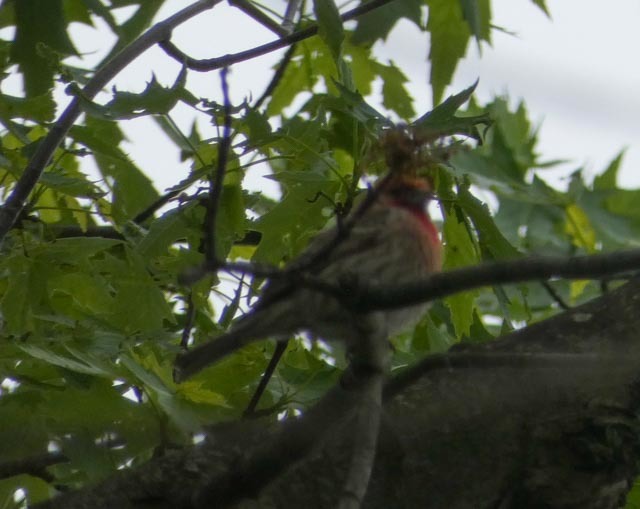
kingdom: Animalia
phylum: Chordata
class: Aves
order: Passeriformes
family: Fringillidae
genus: Haemorhous
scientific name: Haemorhous mexicanus
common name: House finch
